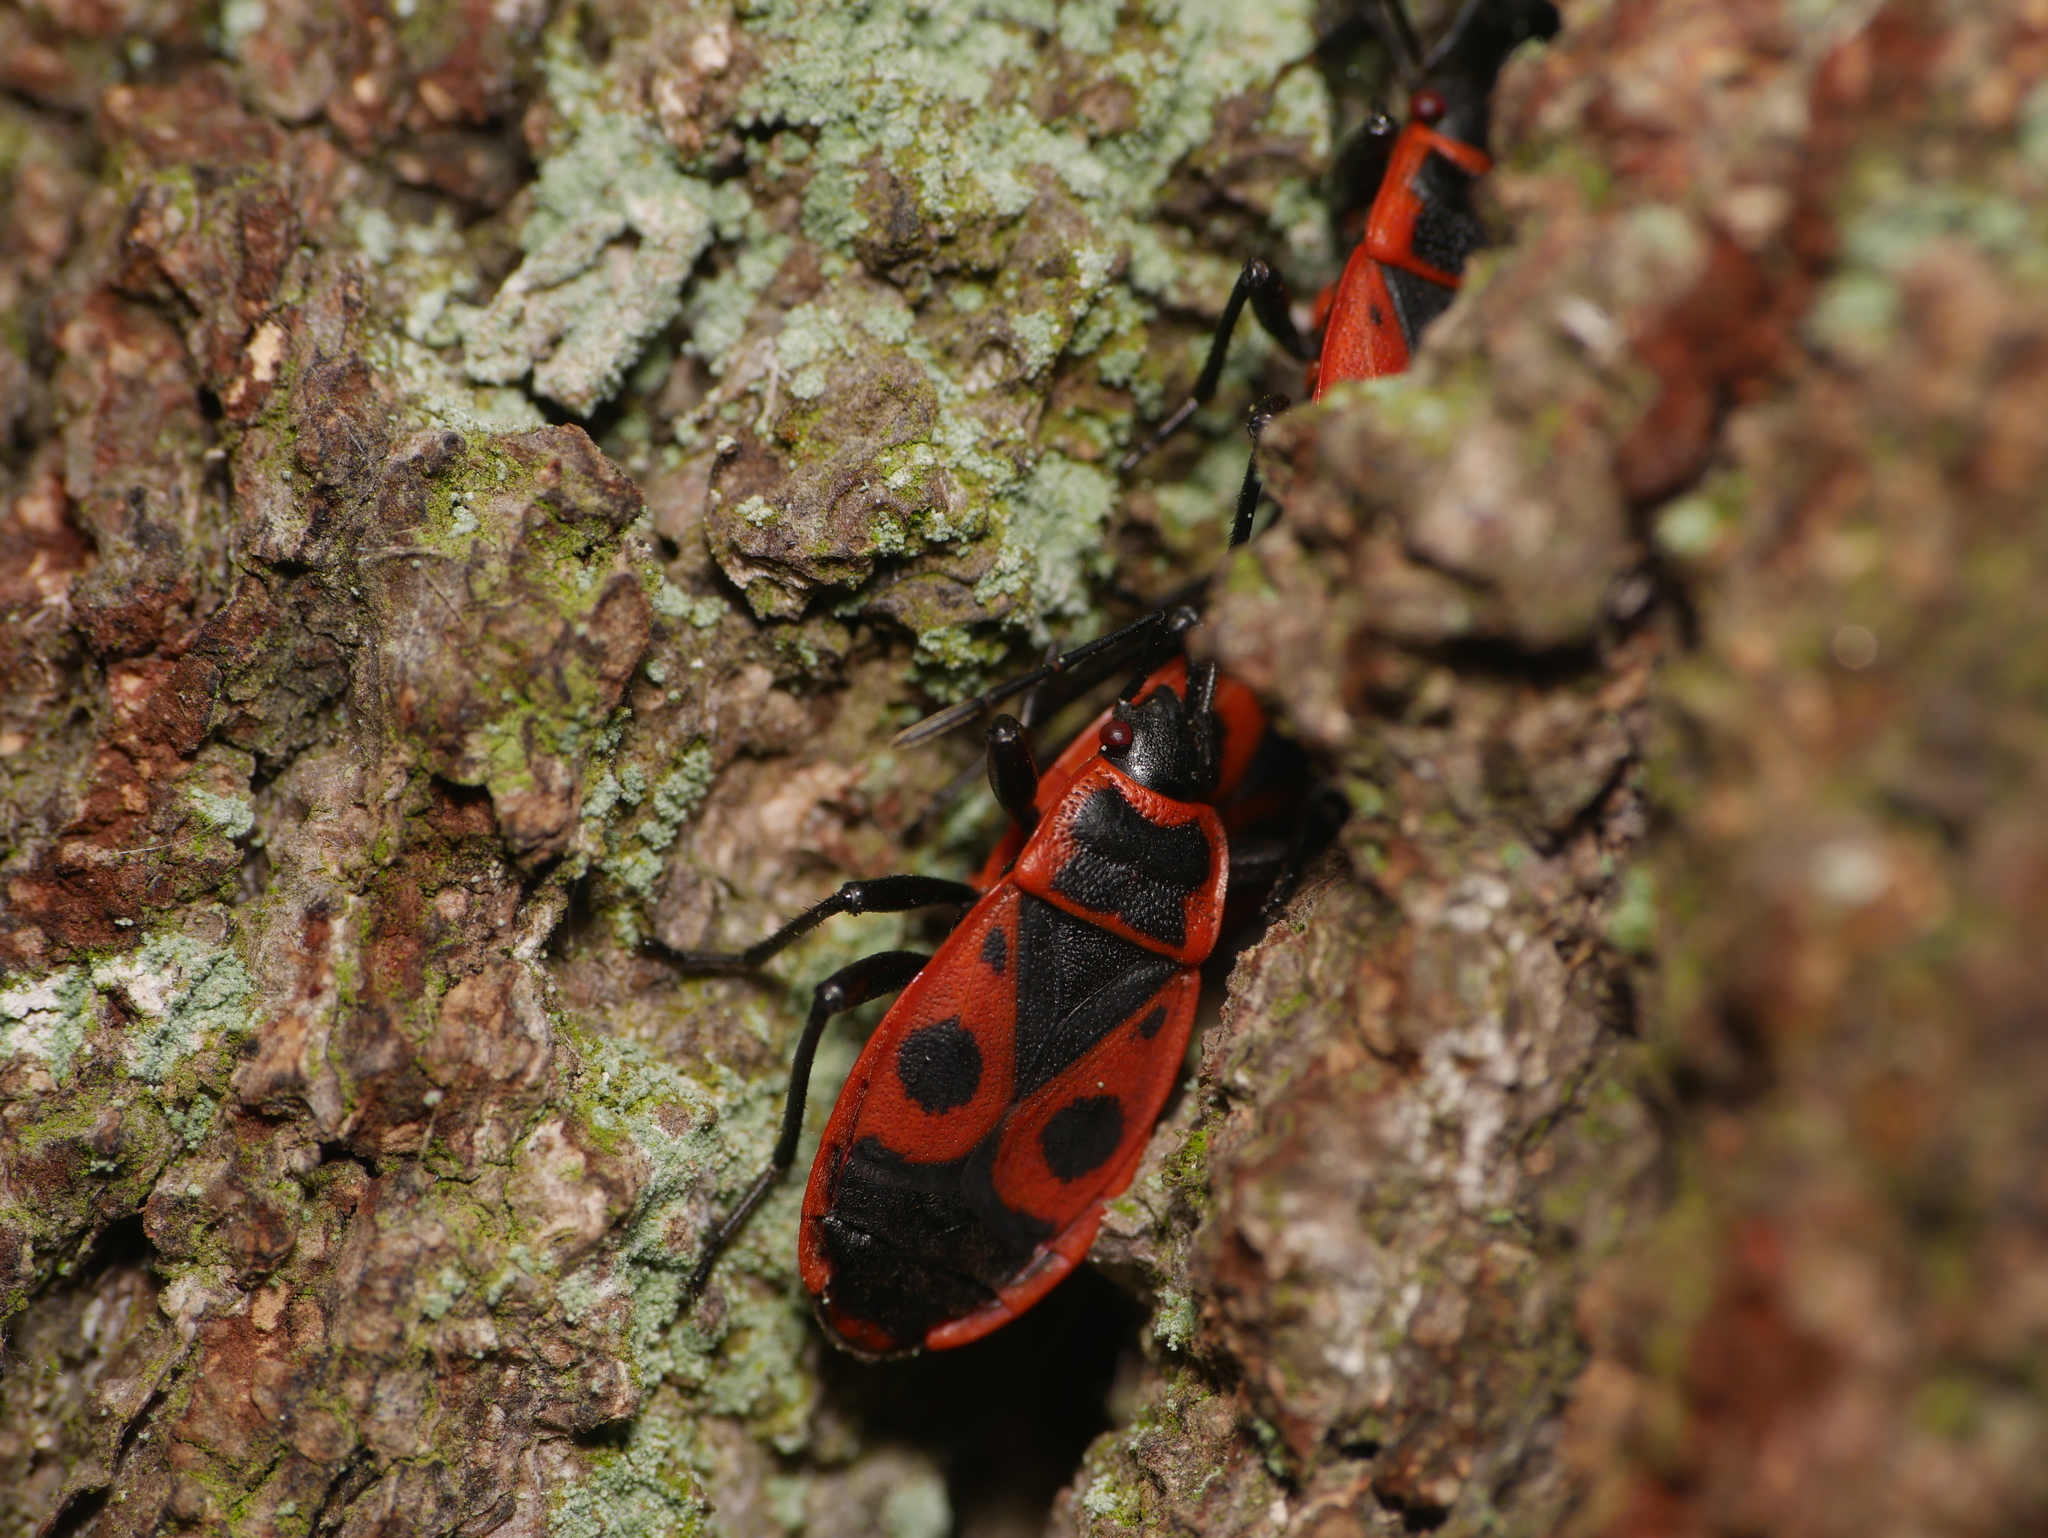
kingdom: Animalia
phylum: Arthropoda
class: Insecta
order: Hemiptera
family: Pyrrhocoridae
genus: Pyrrhocoris
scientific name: Pyrrhocoris apterus
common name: Firebug
